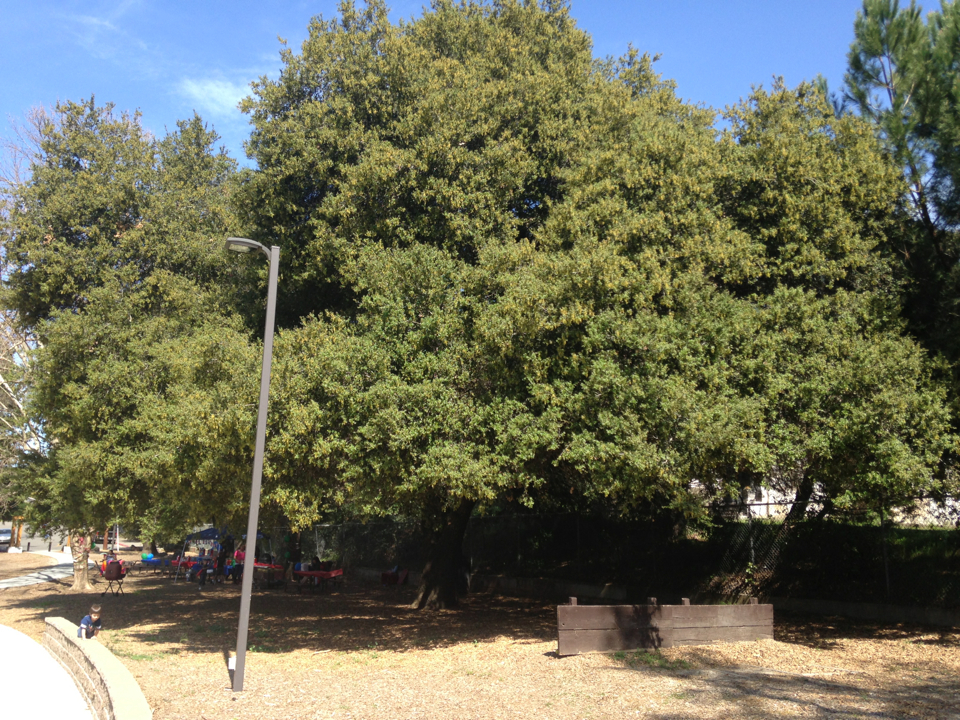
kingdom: Plantae
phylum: Tracheophyta
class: Magnoliopsida
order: Fagales
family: Fagaceae
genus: Quercus
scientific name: Quercus agrifolia
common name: California live oak
